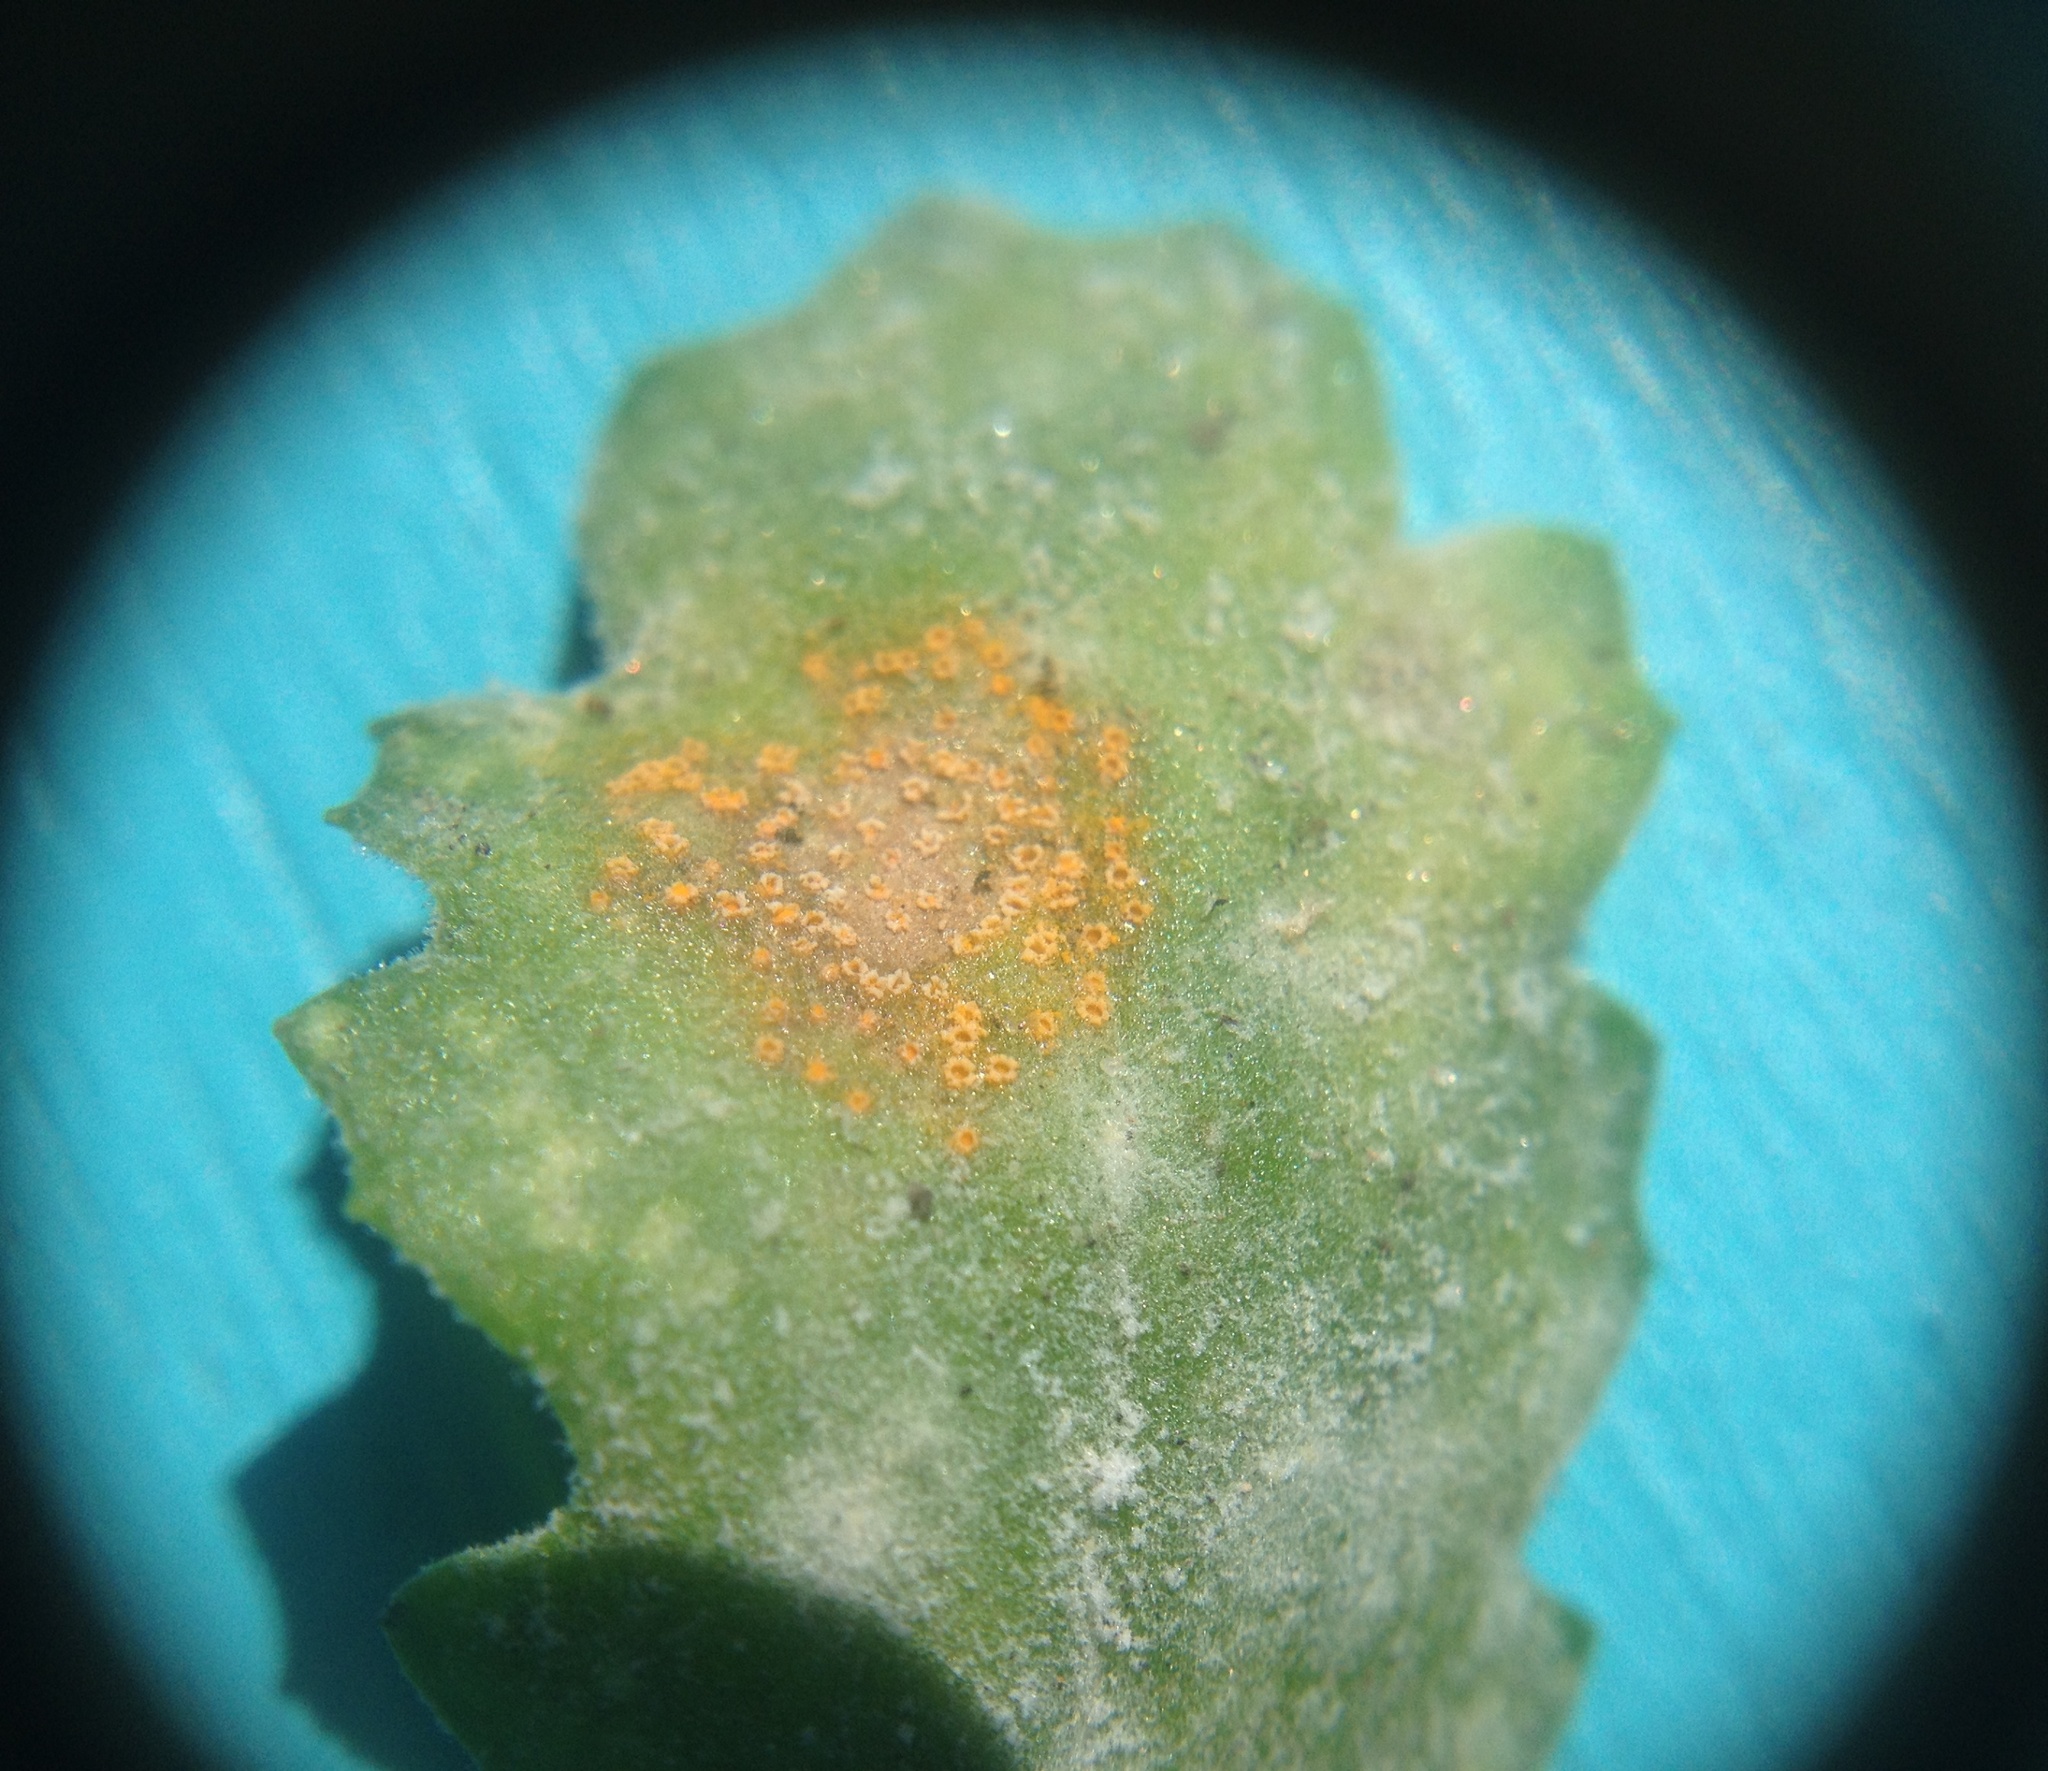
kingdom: Fungi
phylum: Ascomycota
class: Leotiomycetes
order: Helotiales
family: Erysiphaceae
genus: Golovinomyces
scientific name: Golovinomyces fischeri
